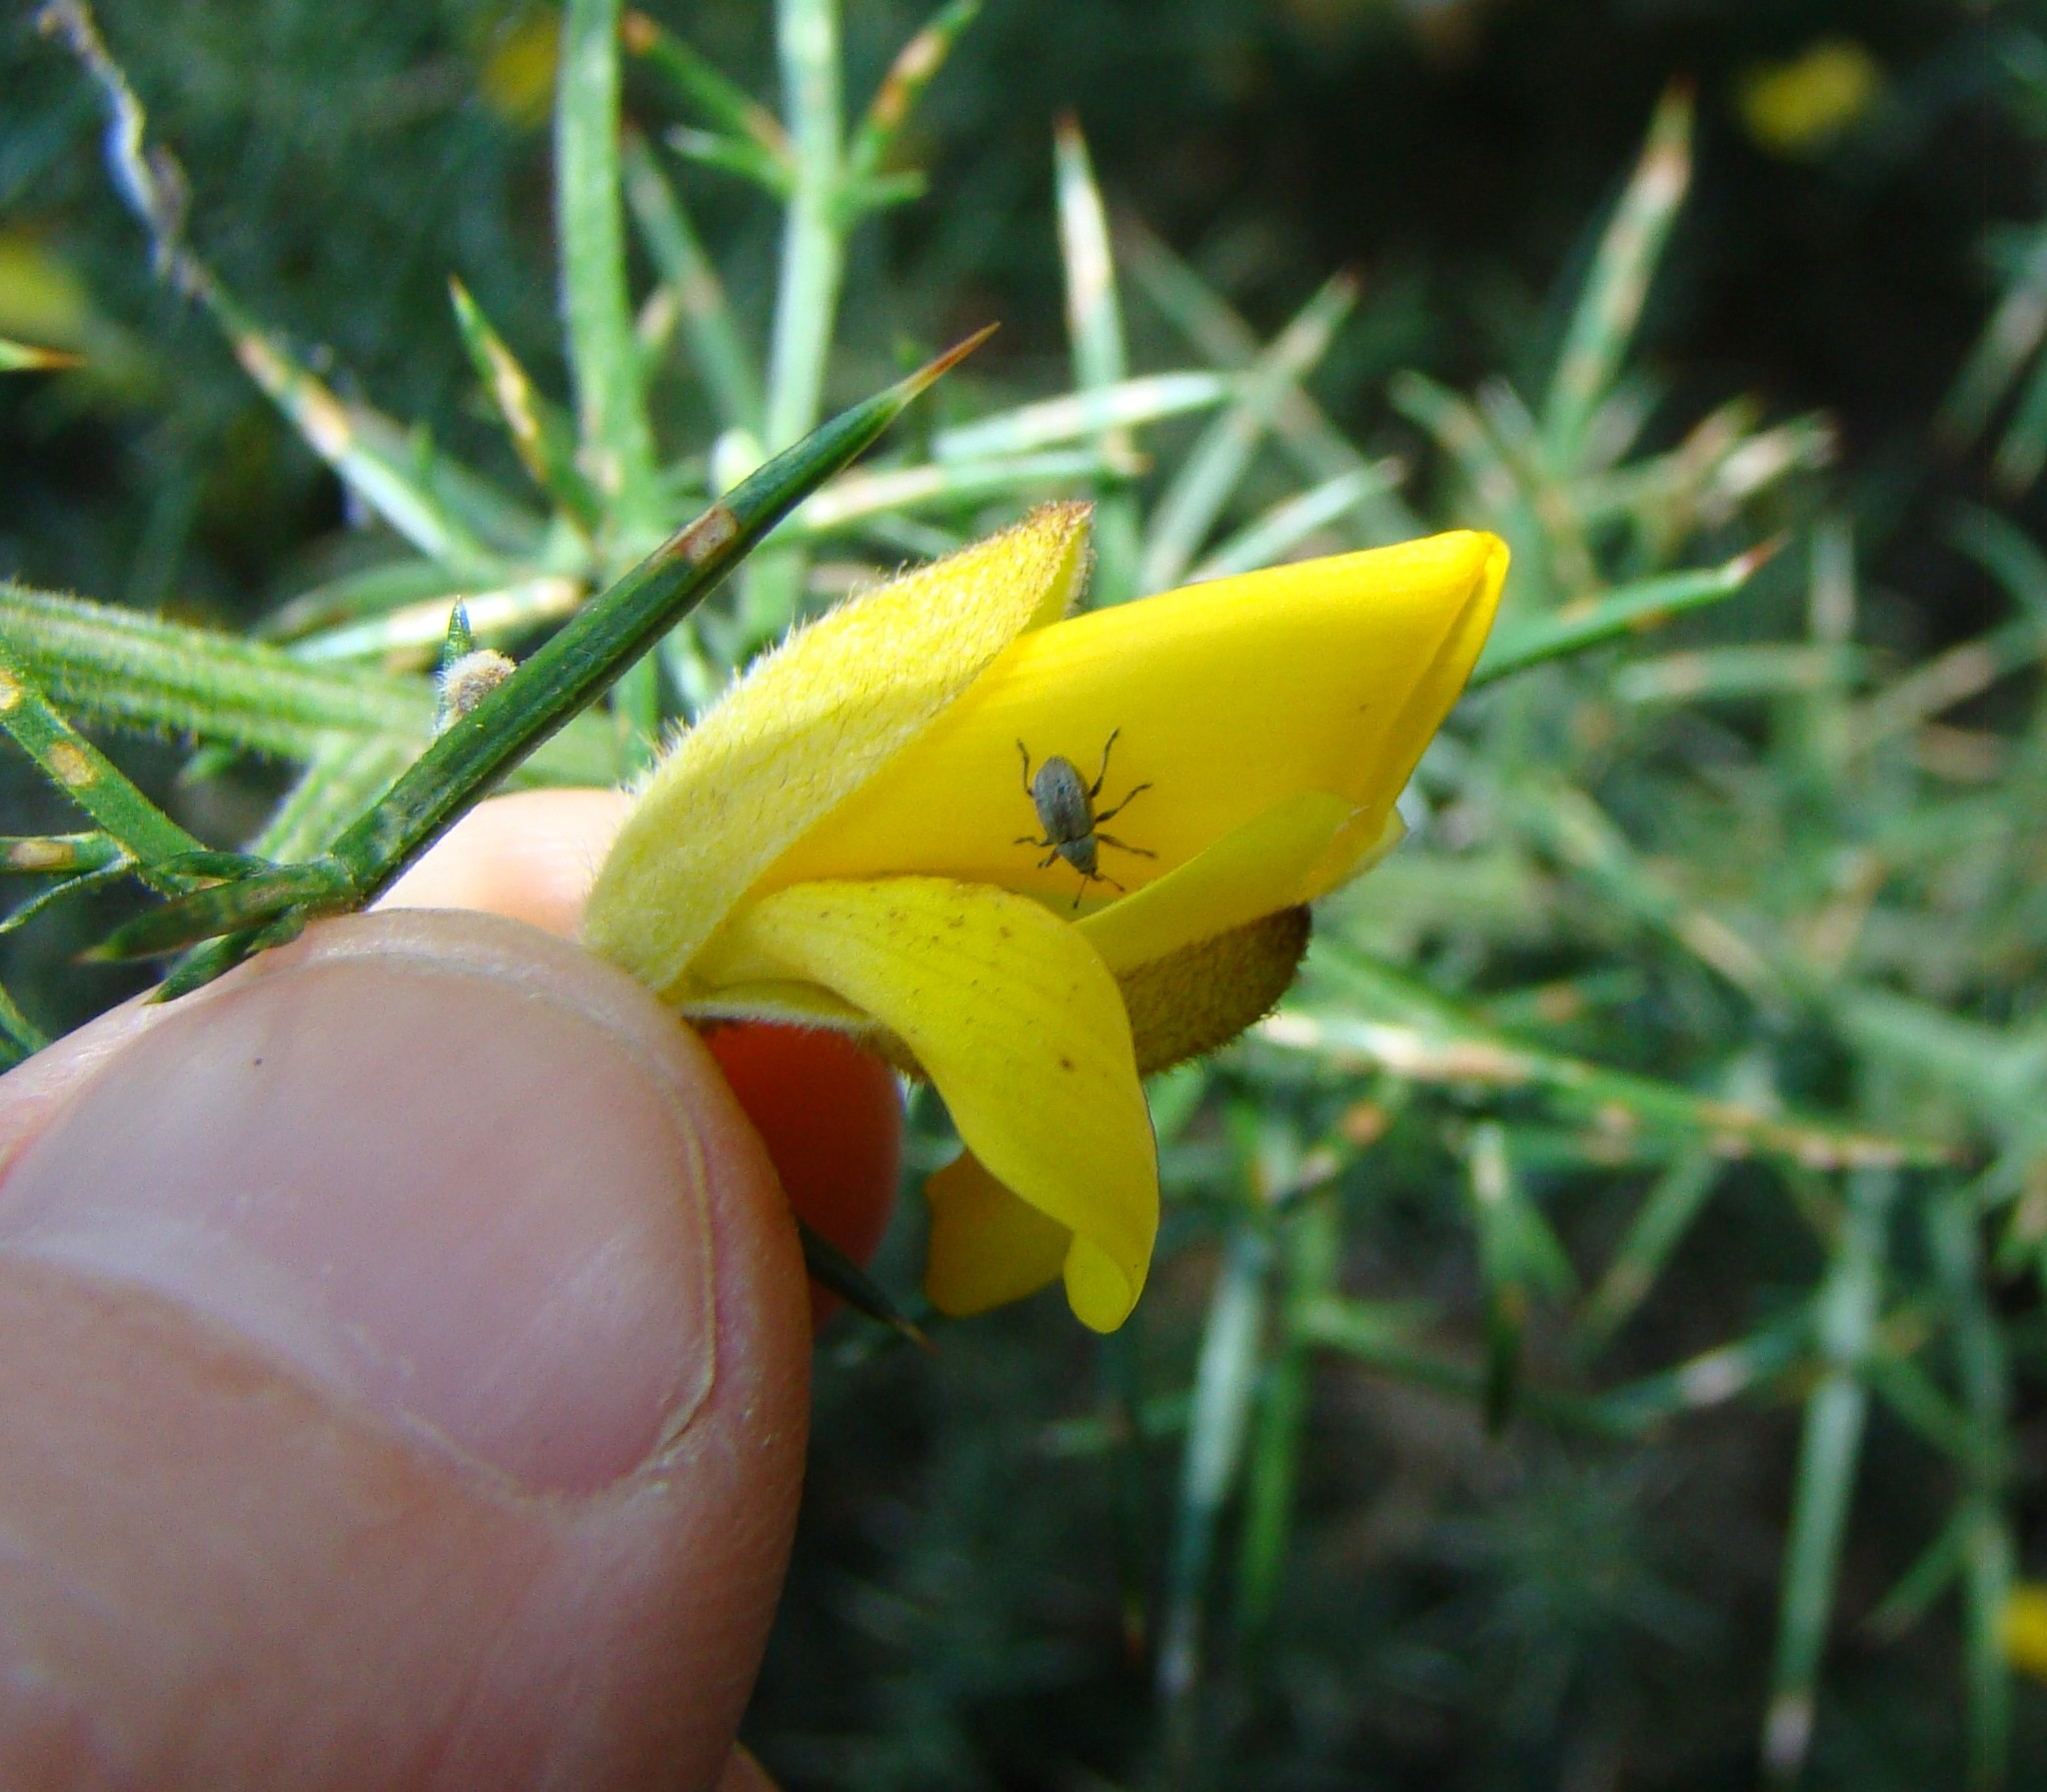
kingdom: Animalia
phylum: Arthropoda
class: Insecta
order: Coleoptera
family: Brentidae
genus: Exapion
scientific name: Exapion ulicis
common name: Gorse seed weevil
